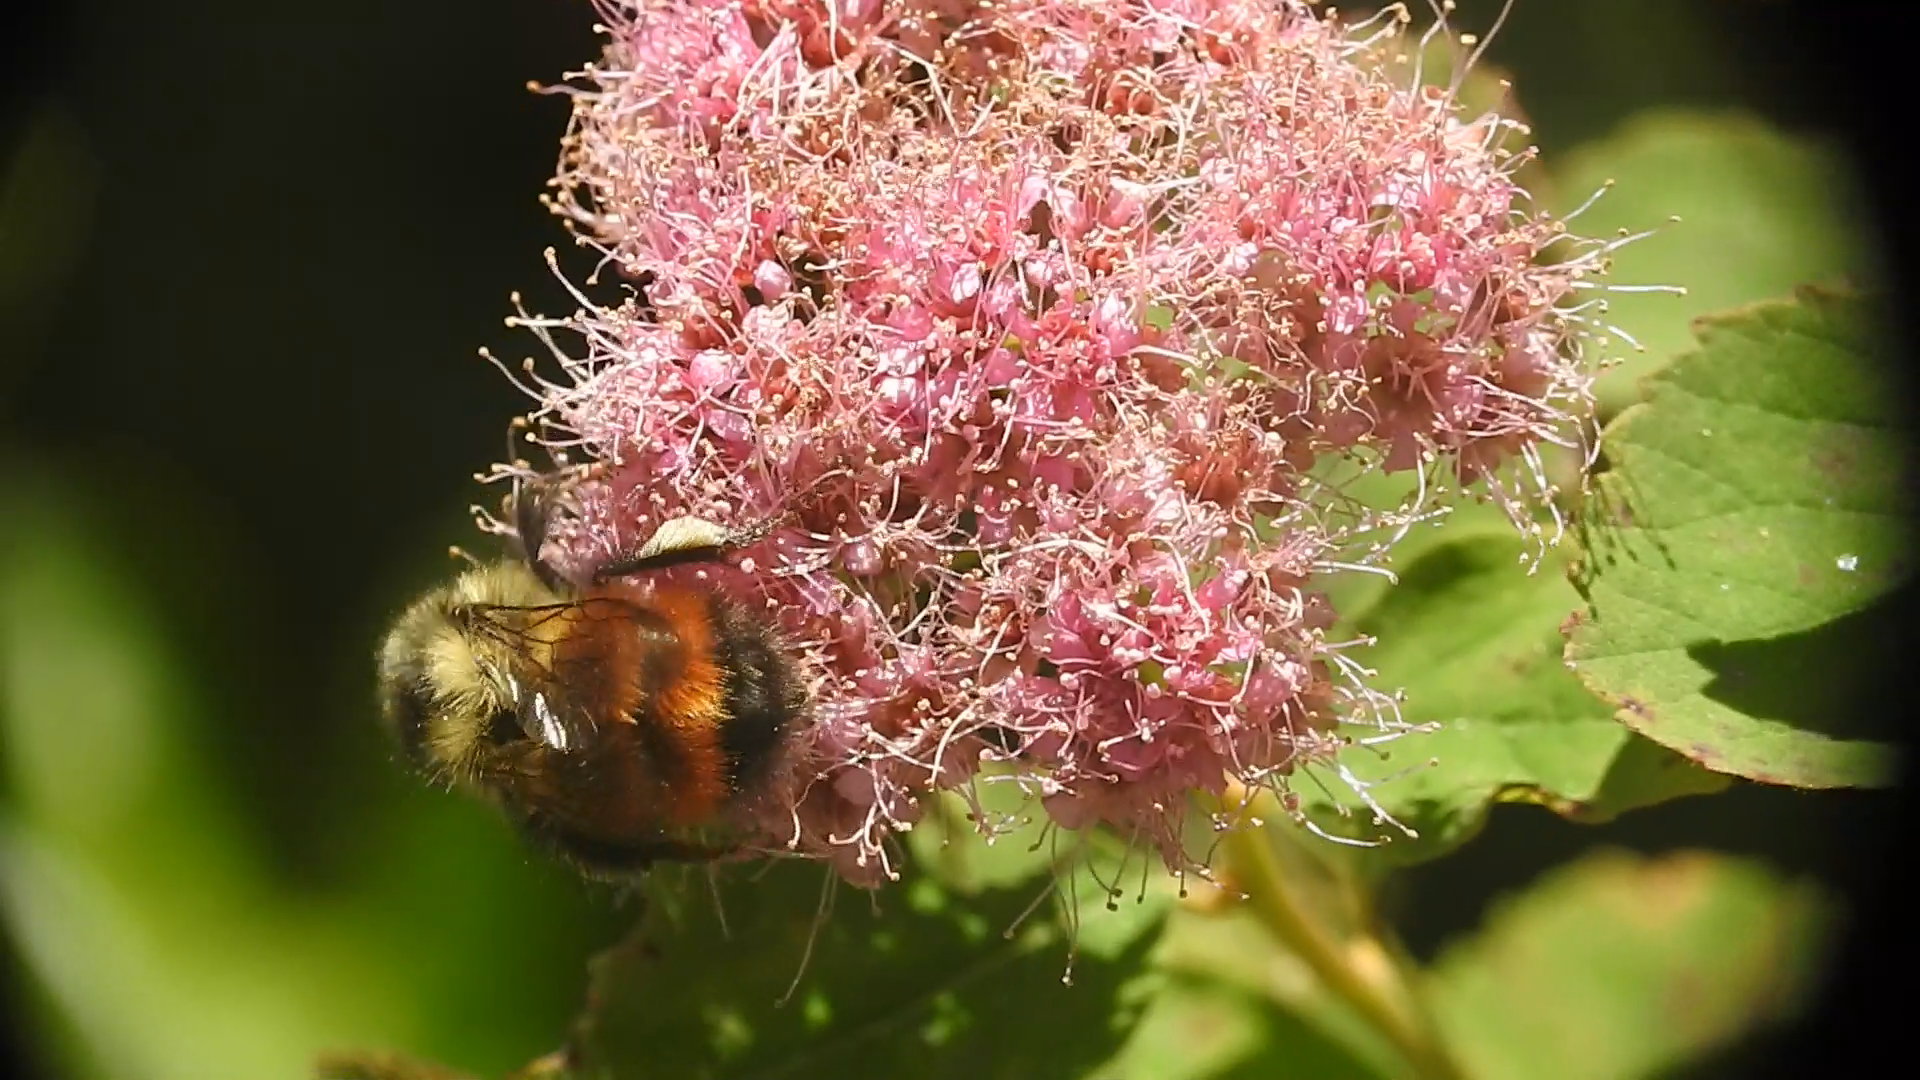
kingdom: Animalia
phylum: Arthropoda
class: Insecta
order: Hymenoptera
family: Apidae
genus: Bombus
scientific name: Bombus melanopygus
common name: Black tail bumble bee
